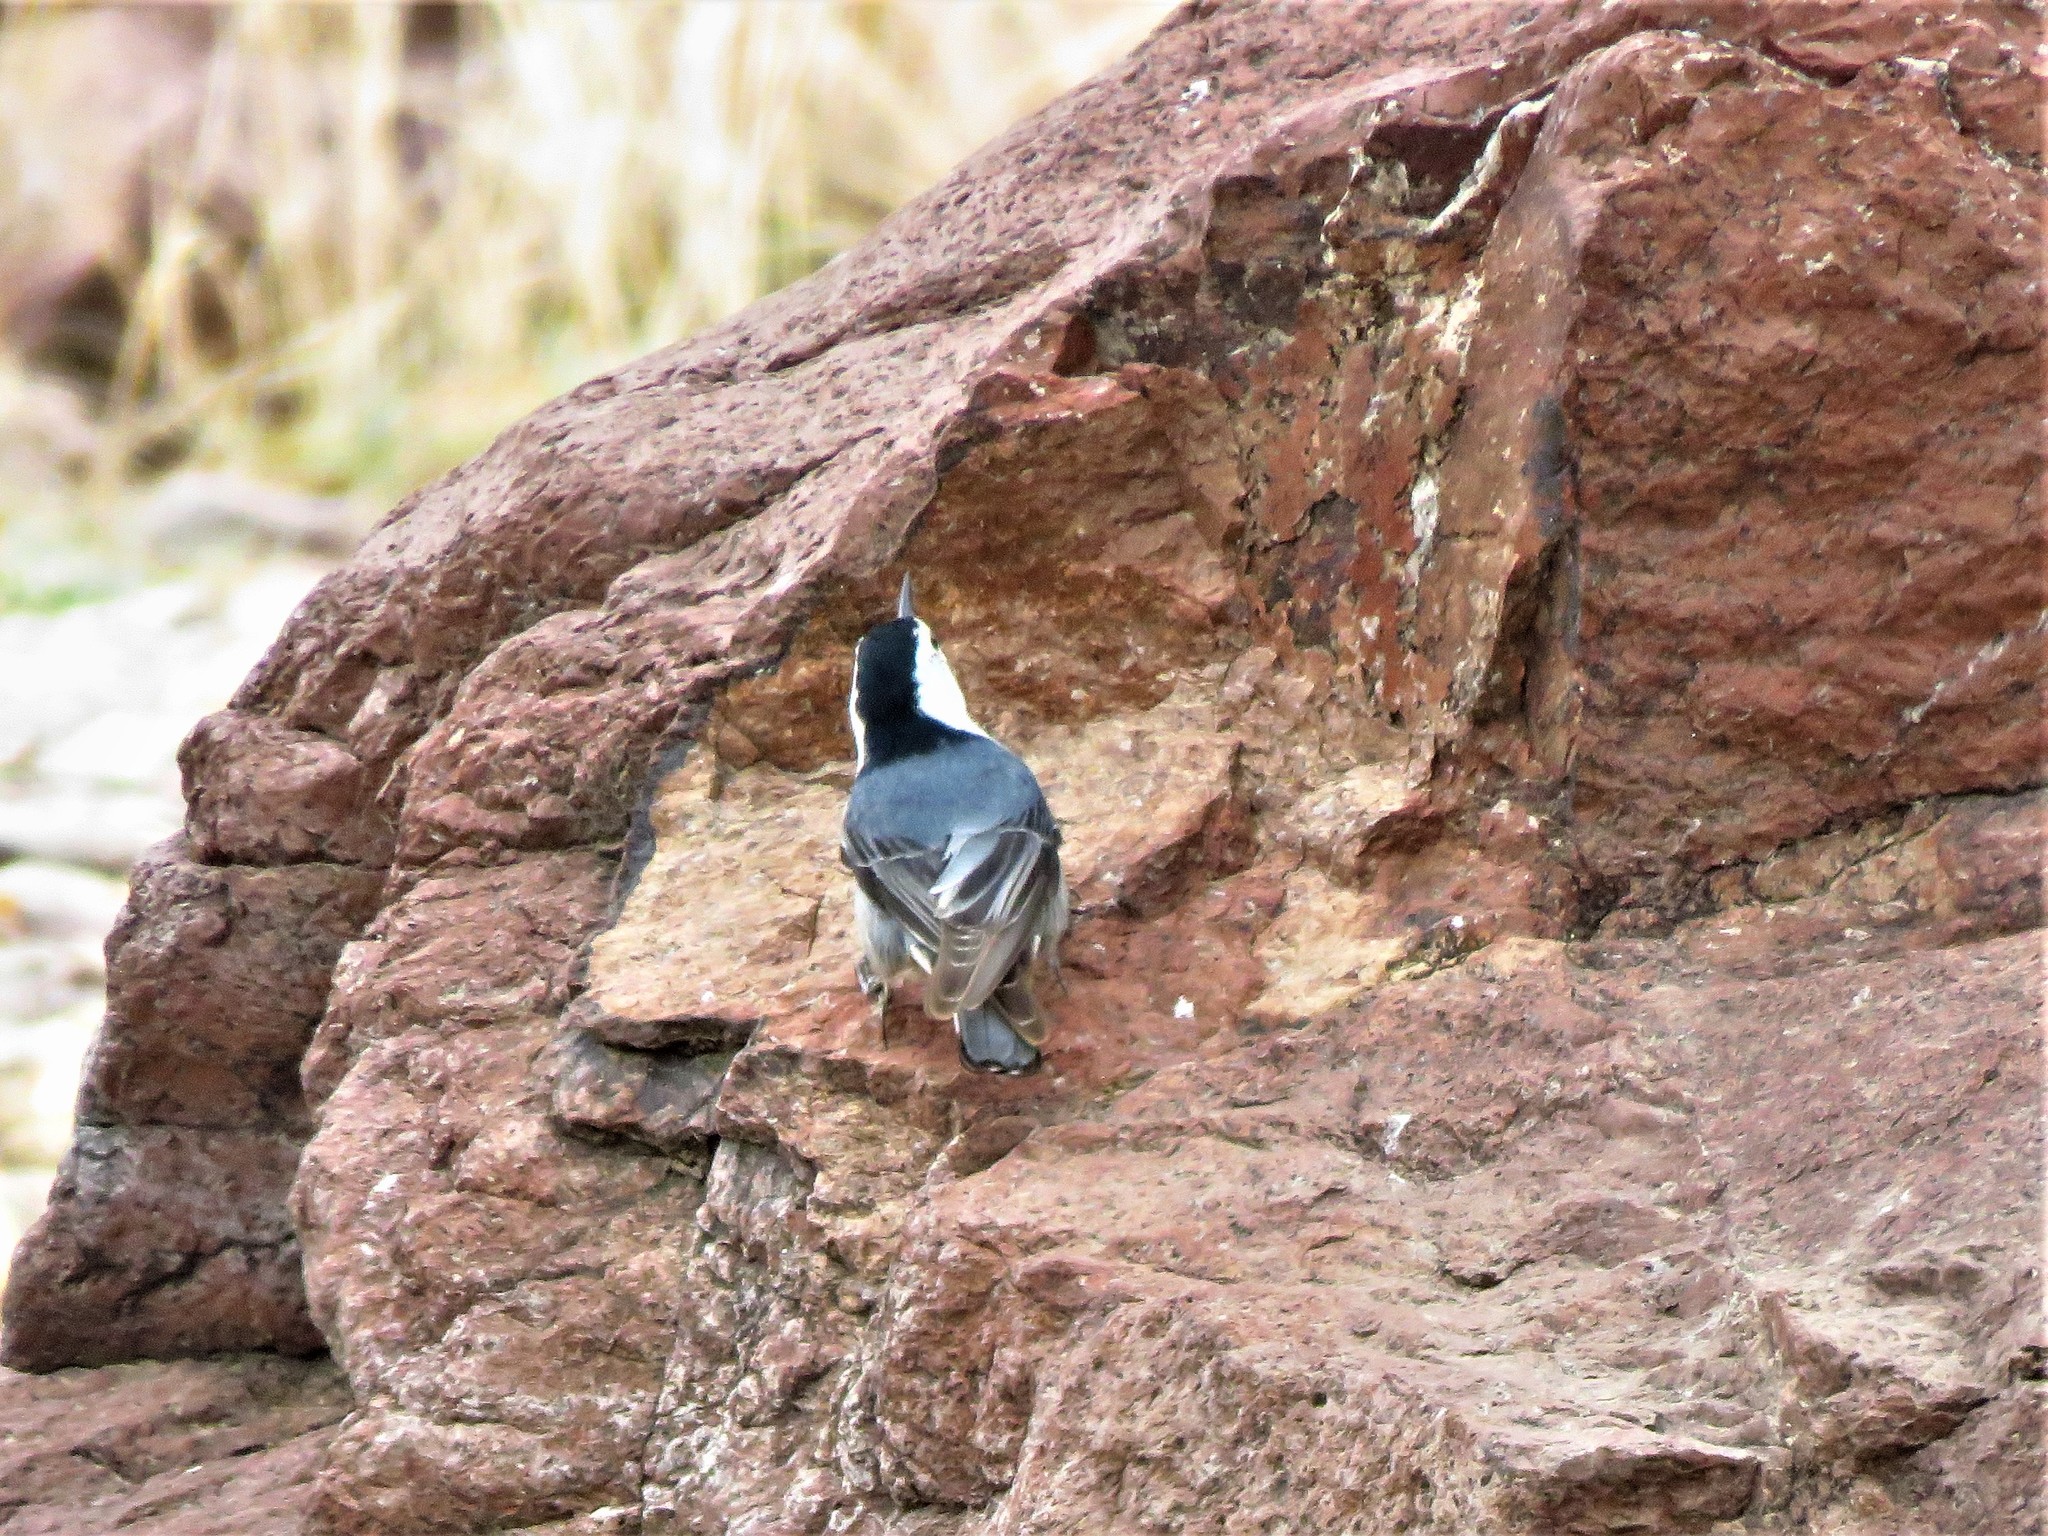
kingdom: Animalia
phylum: Chordata
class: Aves
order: Passeriformes
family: Sittidae
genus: Sitta
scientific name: Sitta carolinensis
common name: White-breasted nuthatch
